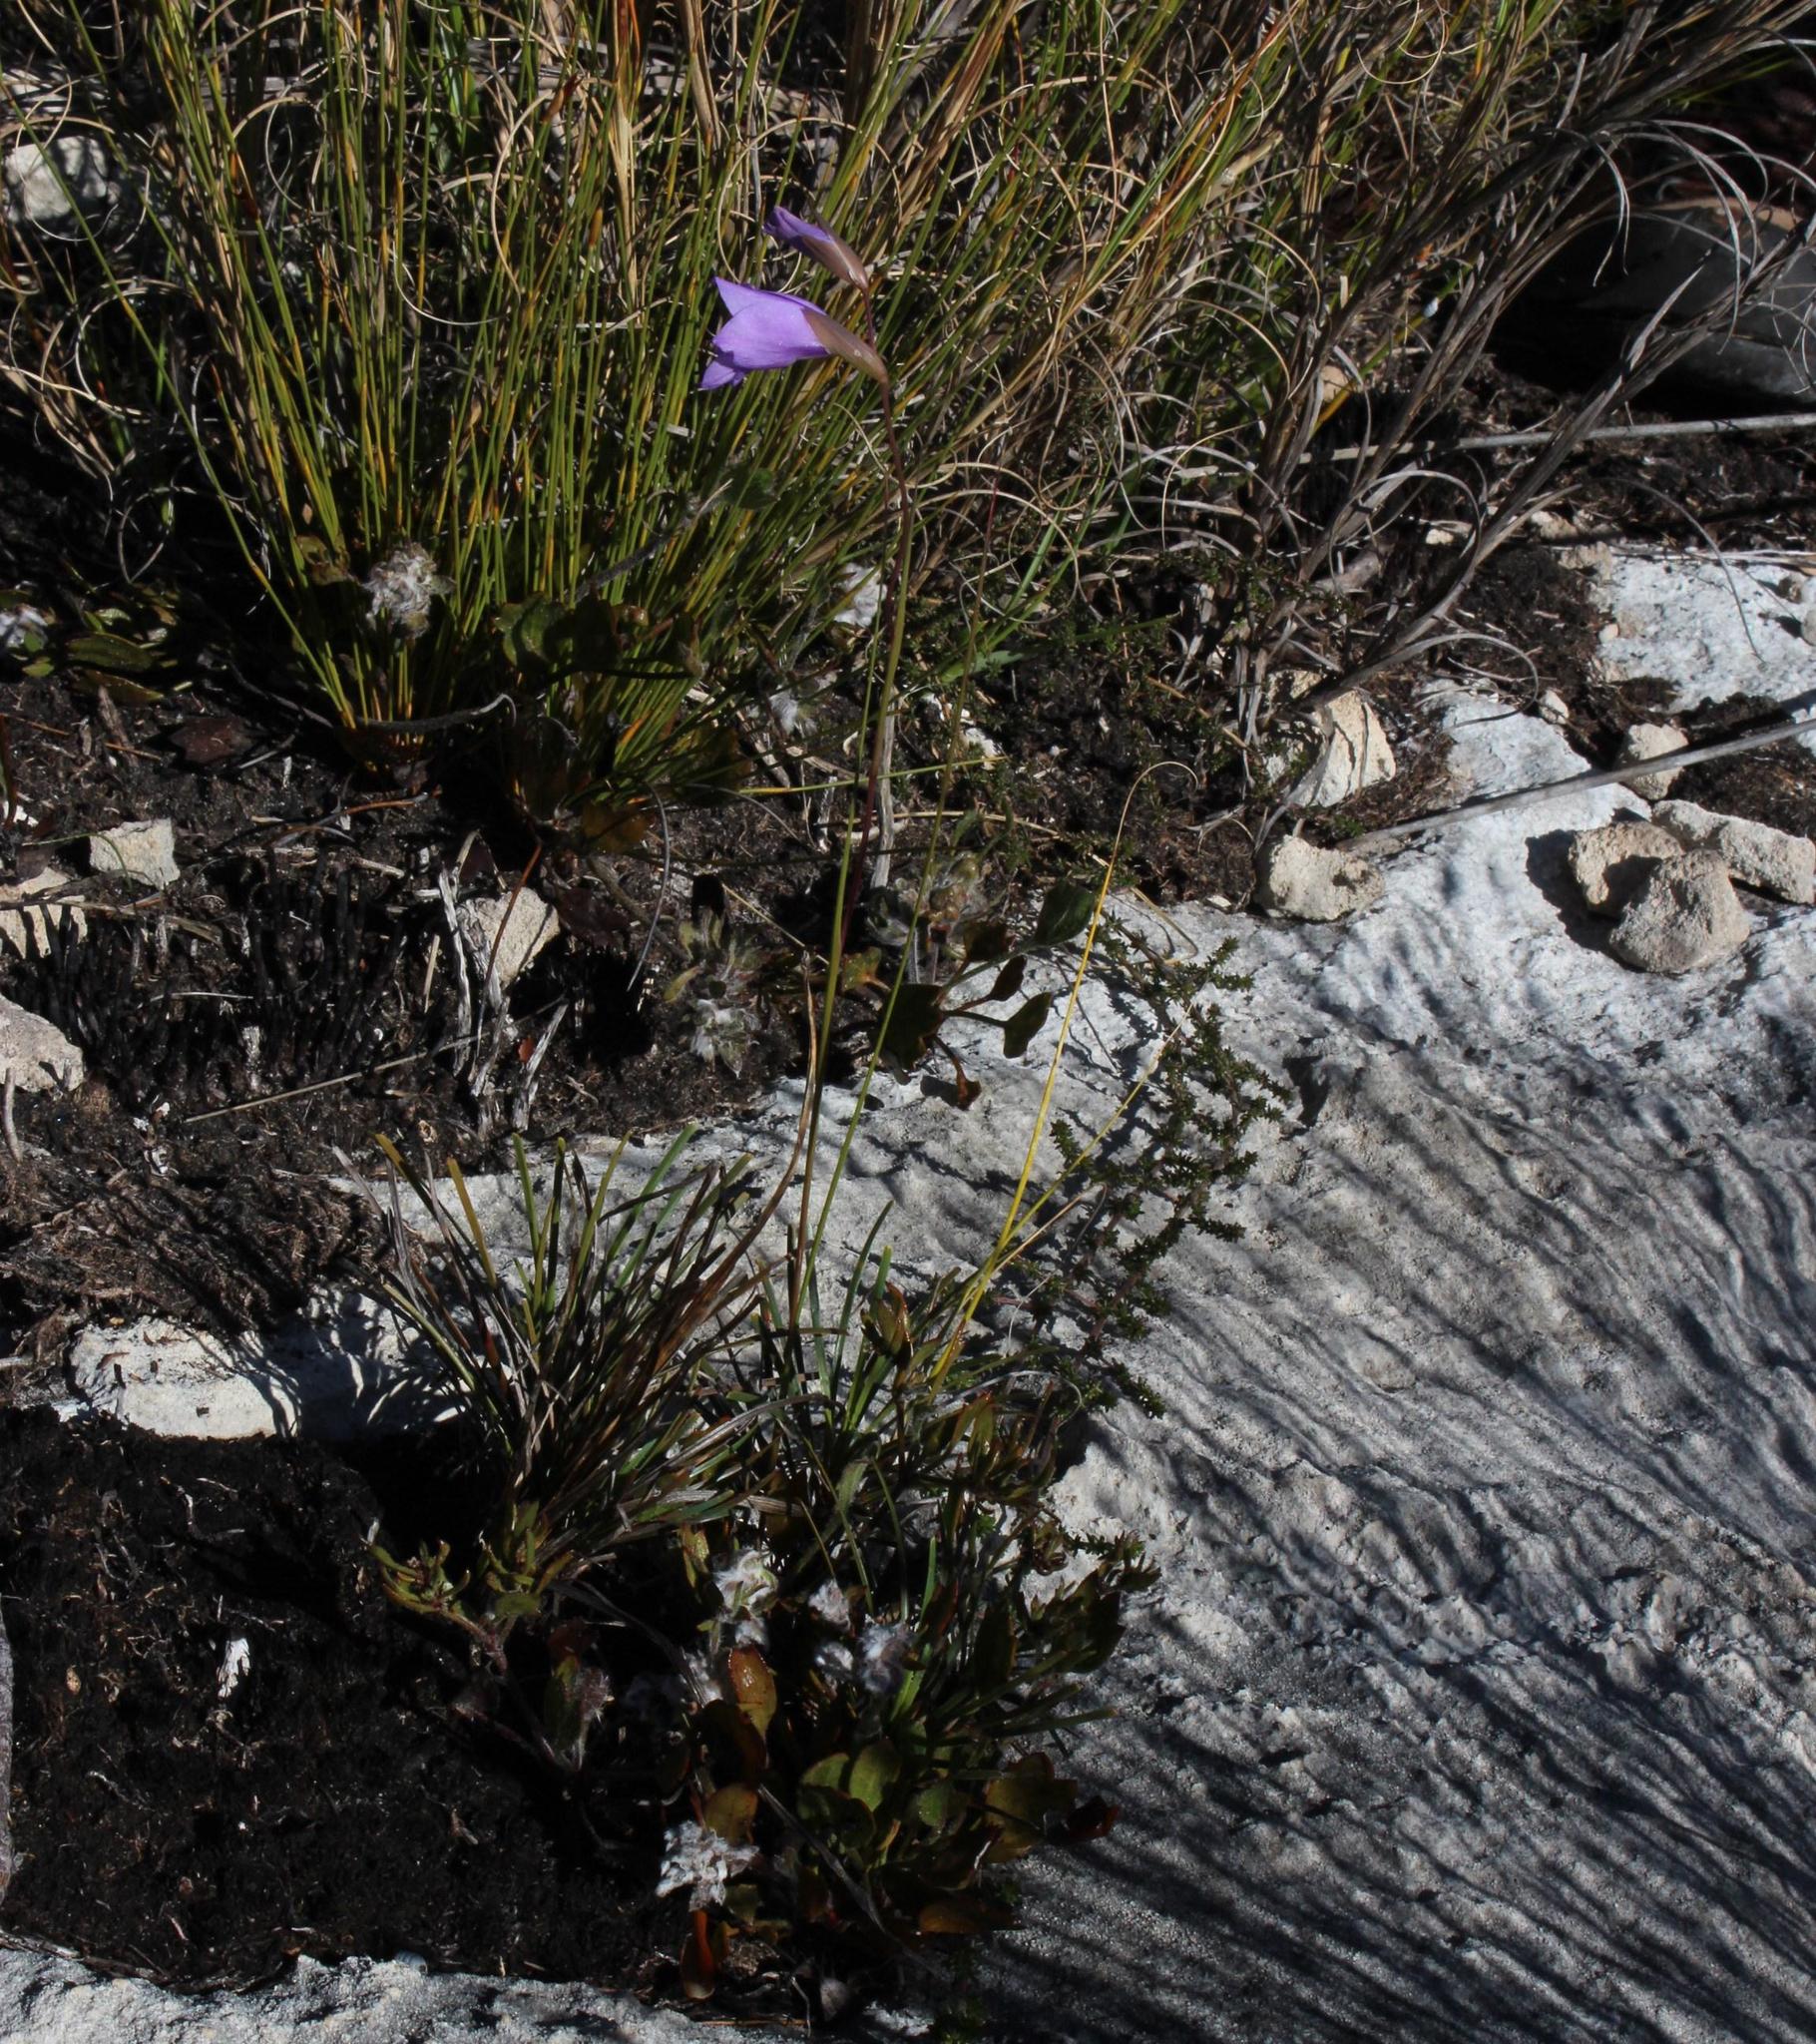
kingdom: Plantae
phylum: Tracheophyta
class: Liliopsida
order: Asparagales
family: Iridaceae
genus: Gladiolus
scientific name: Gladiolus rogersii
